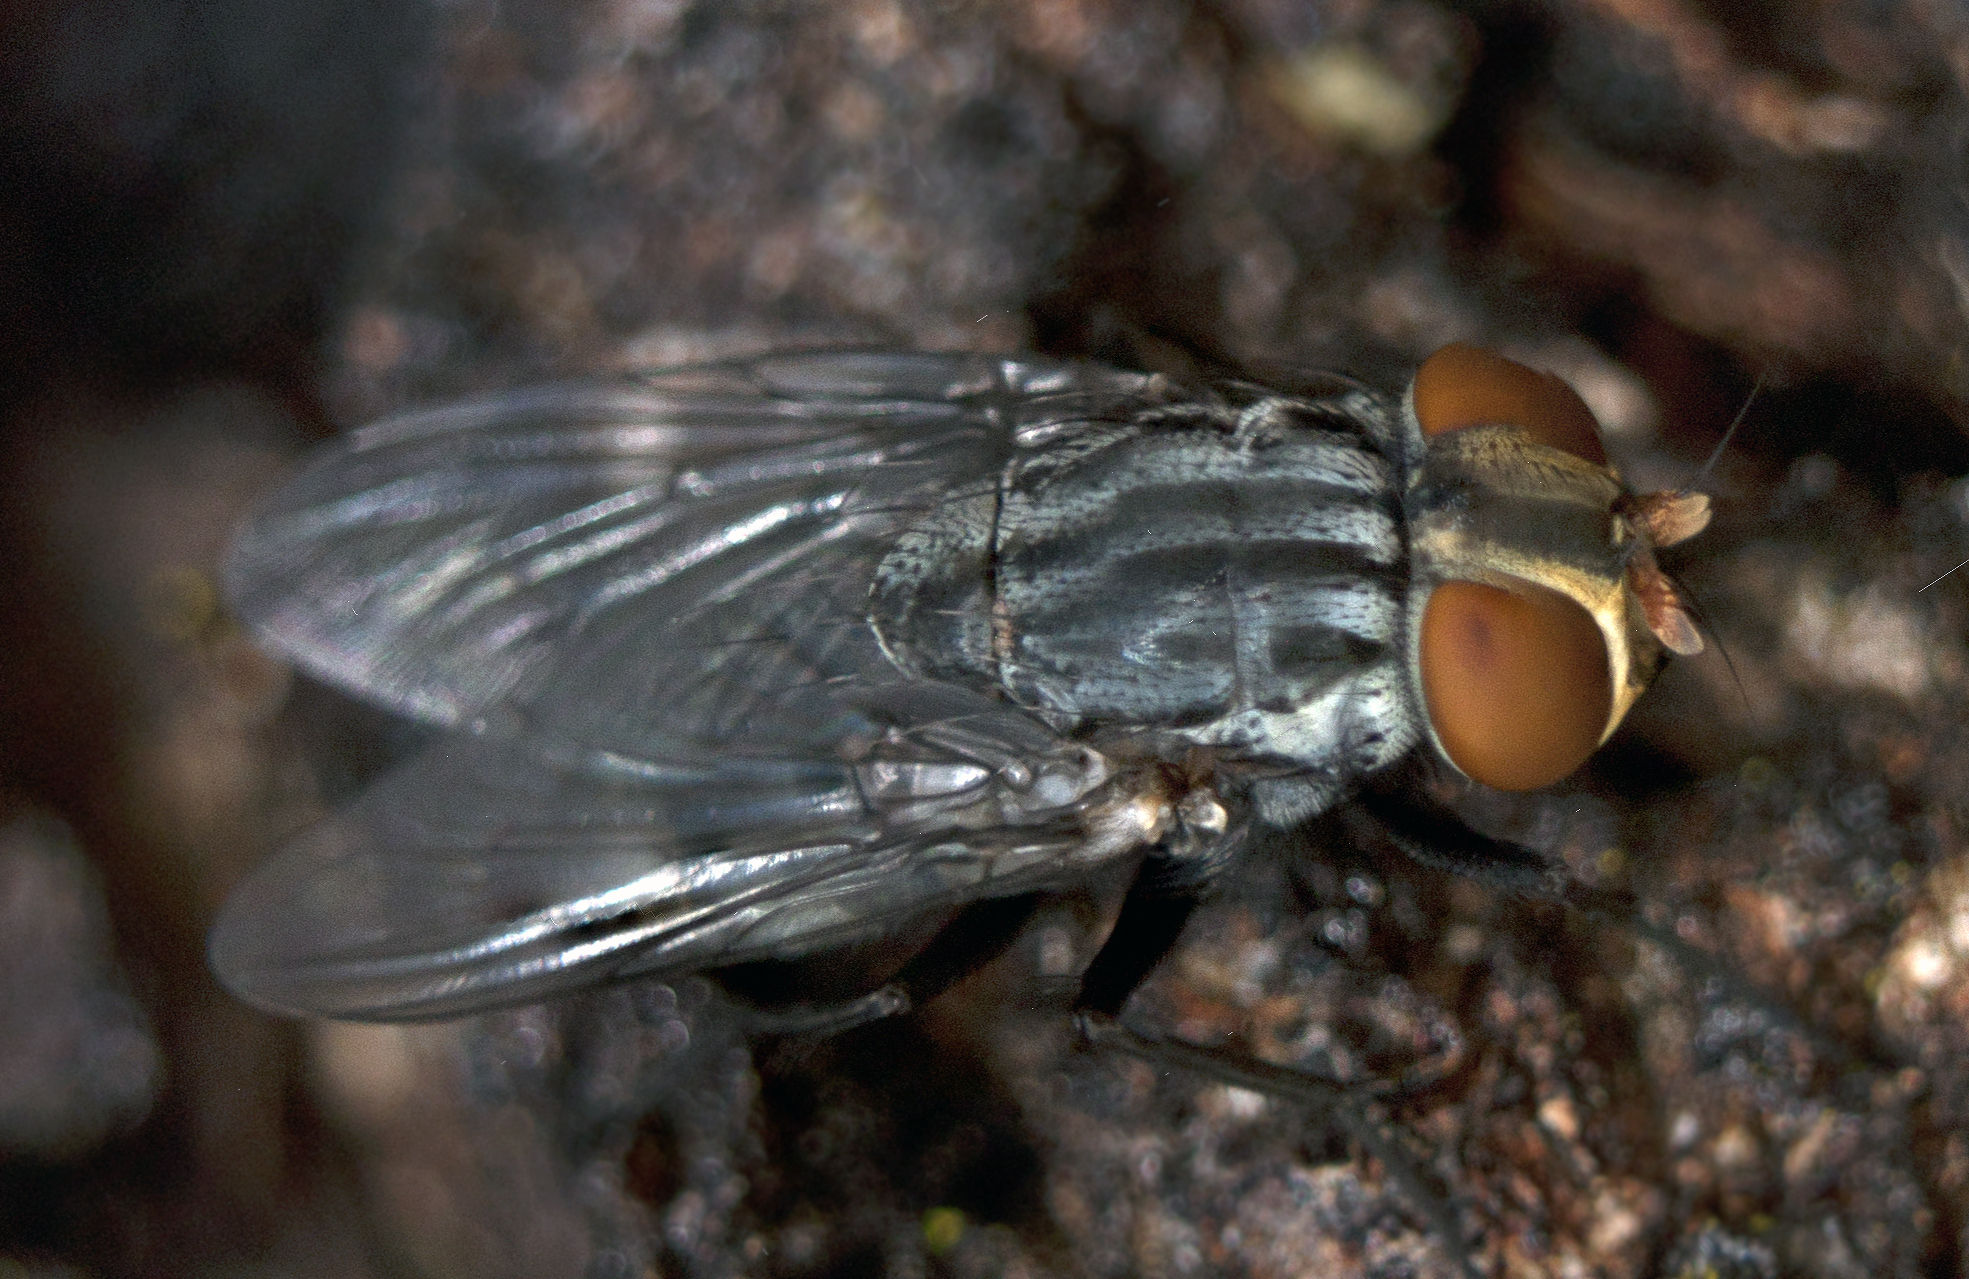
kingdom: Animalia
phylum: Arthropoda
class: Insecta
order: Diptera
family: Muscidae
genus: Synthesiomyia
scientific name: Synthesiomyia nudiseta
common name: Fly
